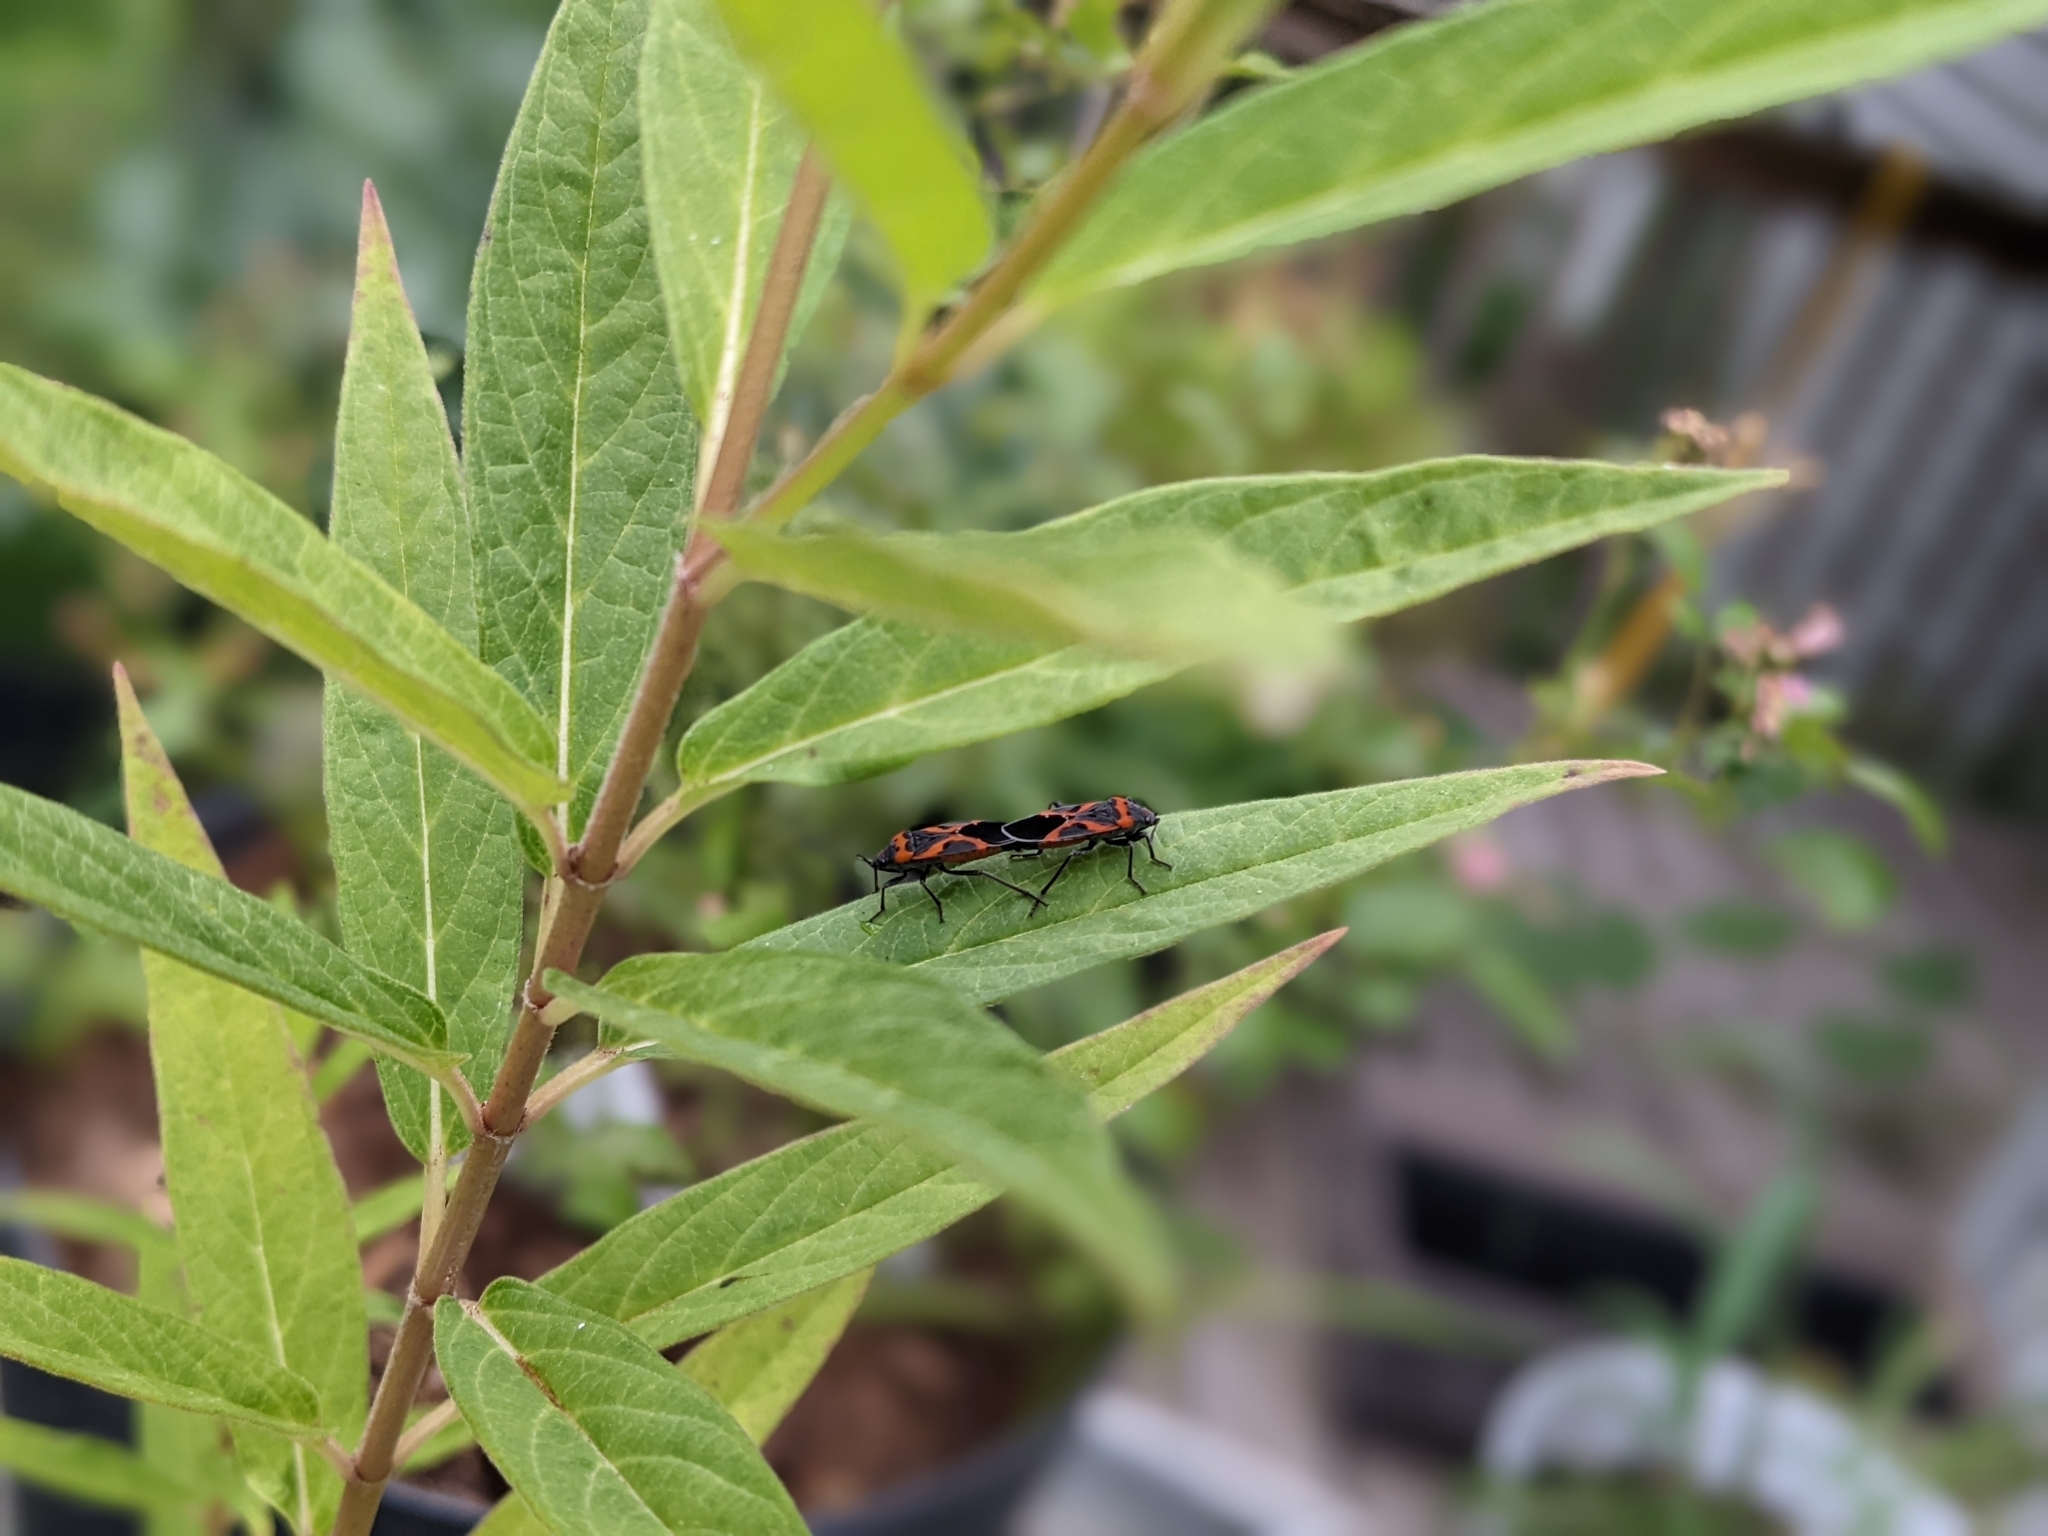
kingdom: Animalia
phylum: Arthropoda
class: Insecta
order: Hemiptera
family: Lygaeidae
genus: Lygaeus
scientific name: Lygaeus kalmii
